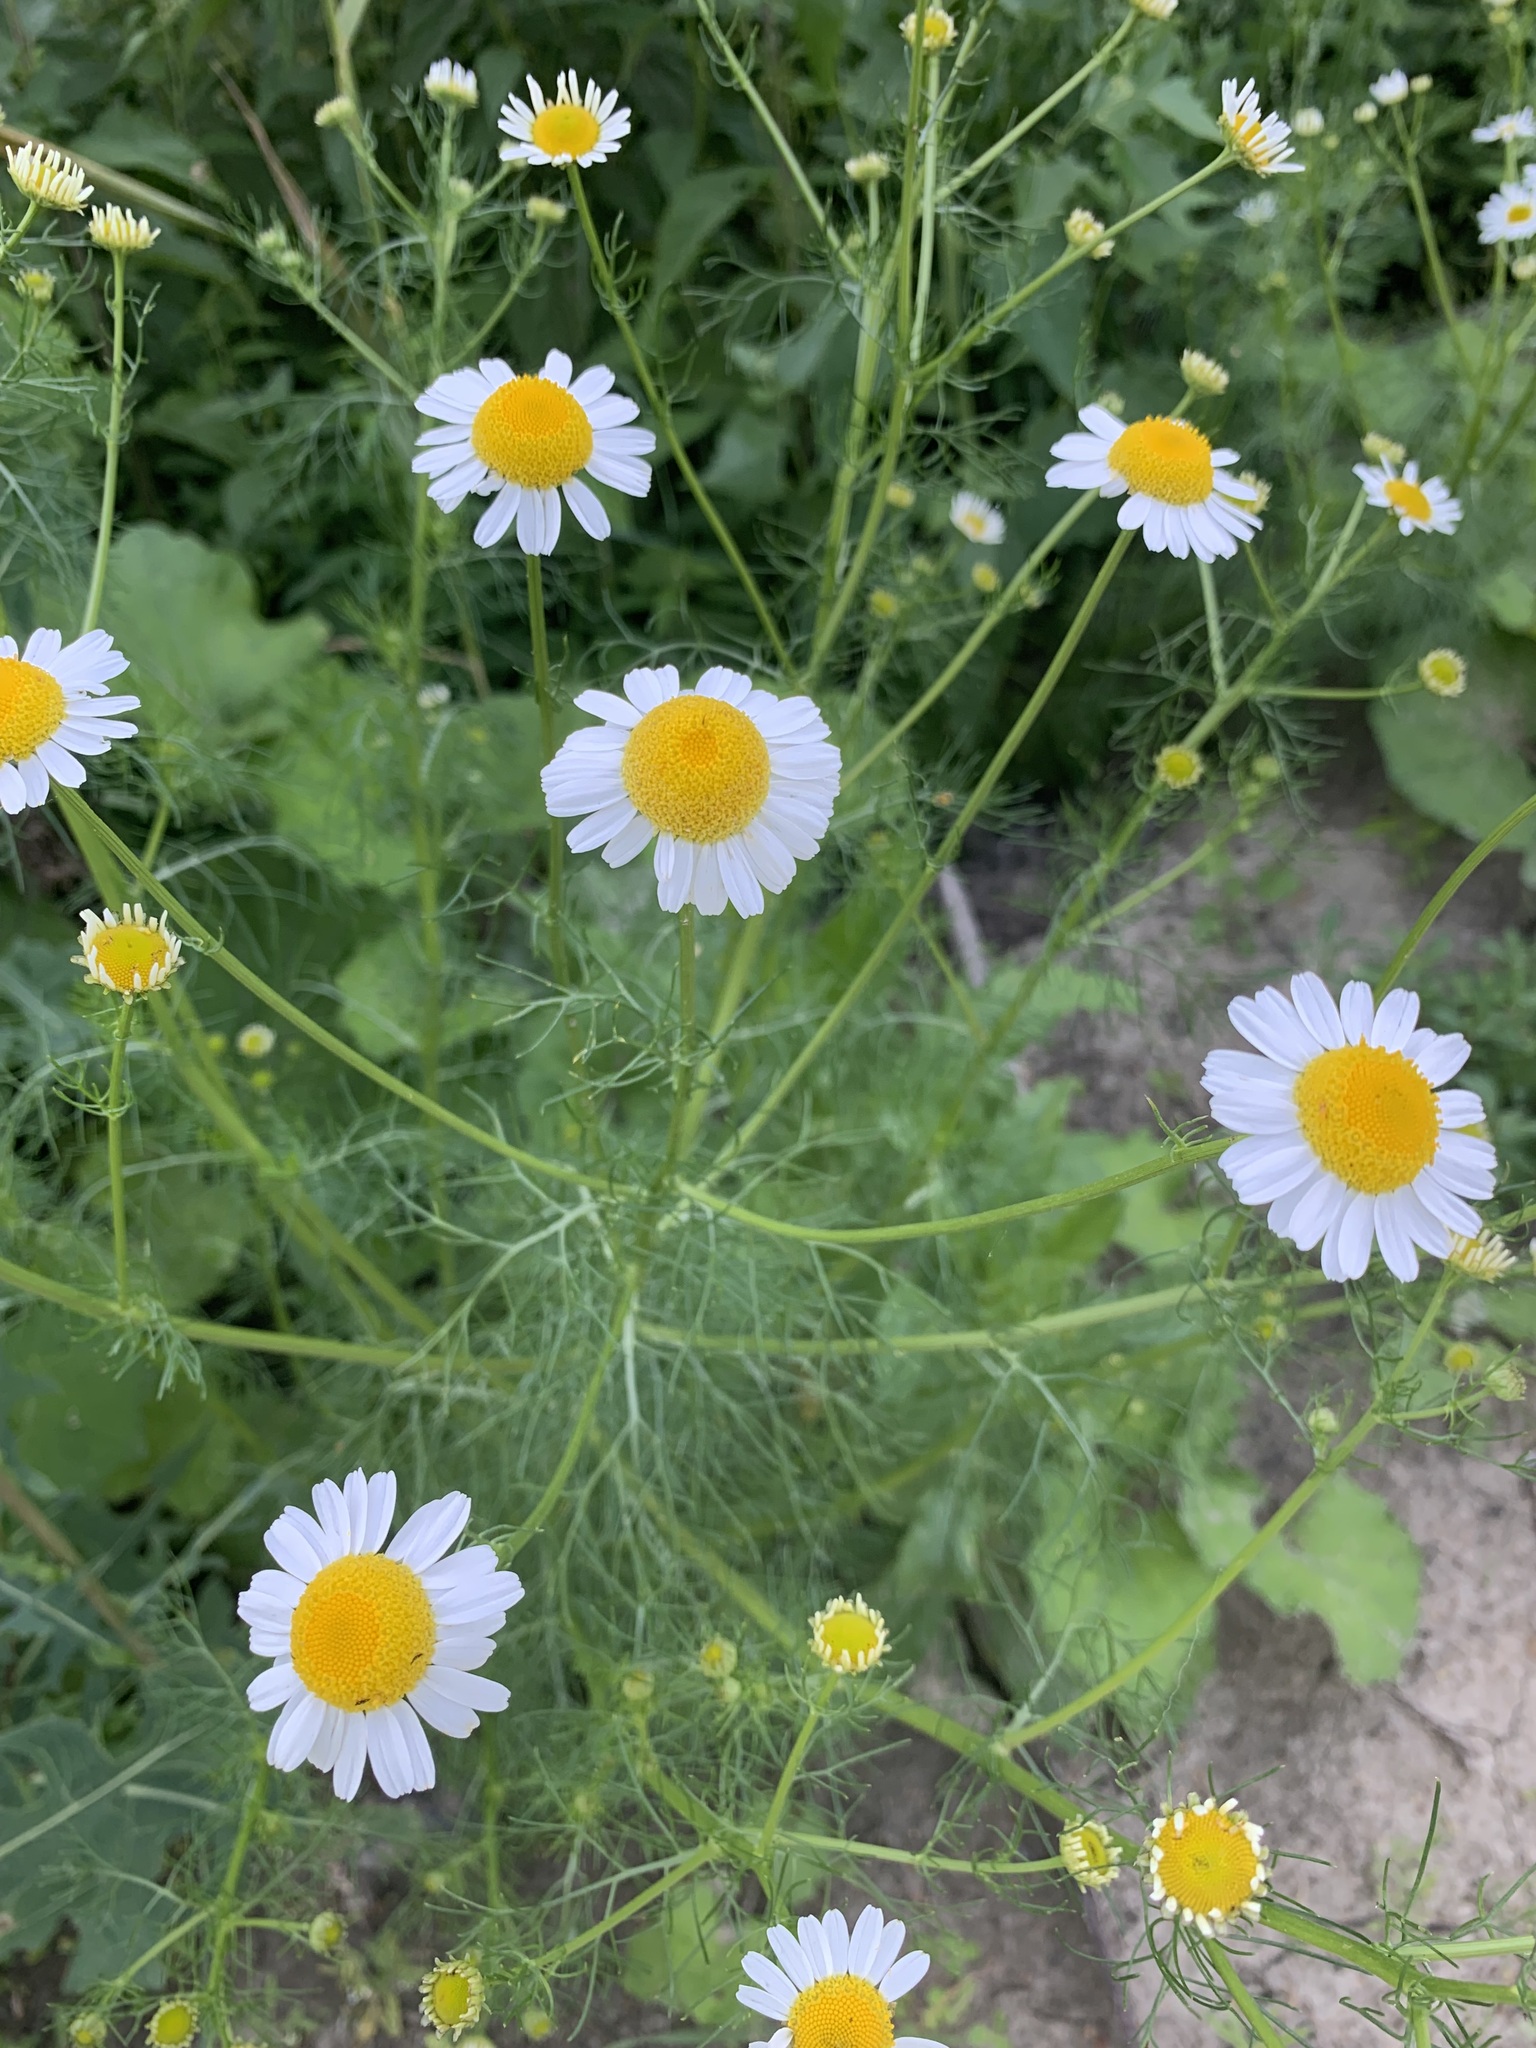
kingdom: Plantae
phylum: Tracheophyta
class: Magnoliopsida
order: Asterales
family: Asteraceae
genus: Tripleurospermum
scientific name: Tripleurospermum inodorum
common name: Scentless mayweed
